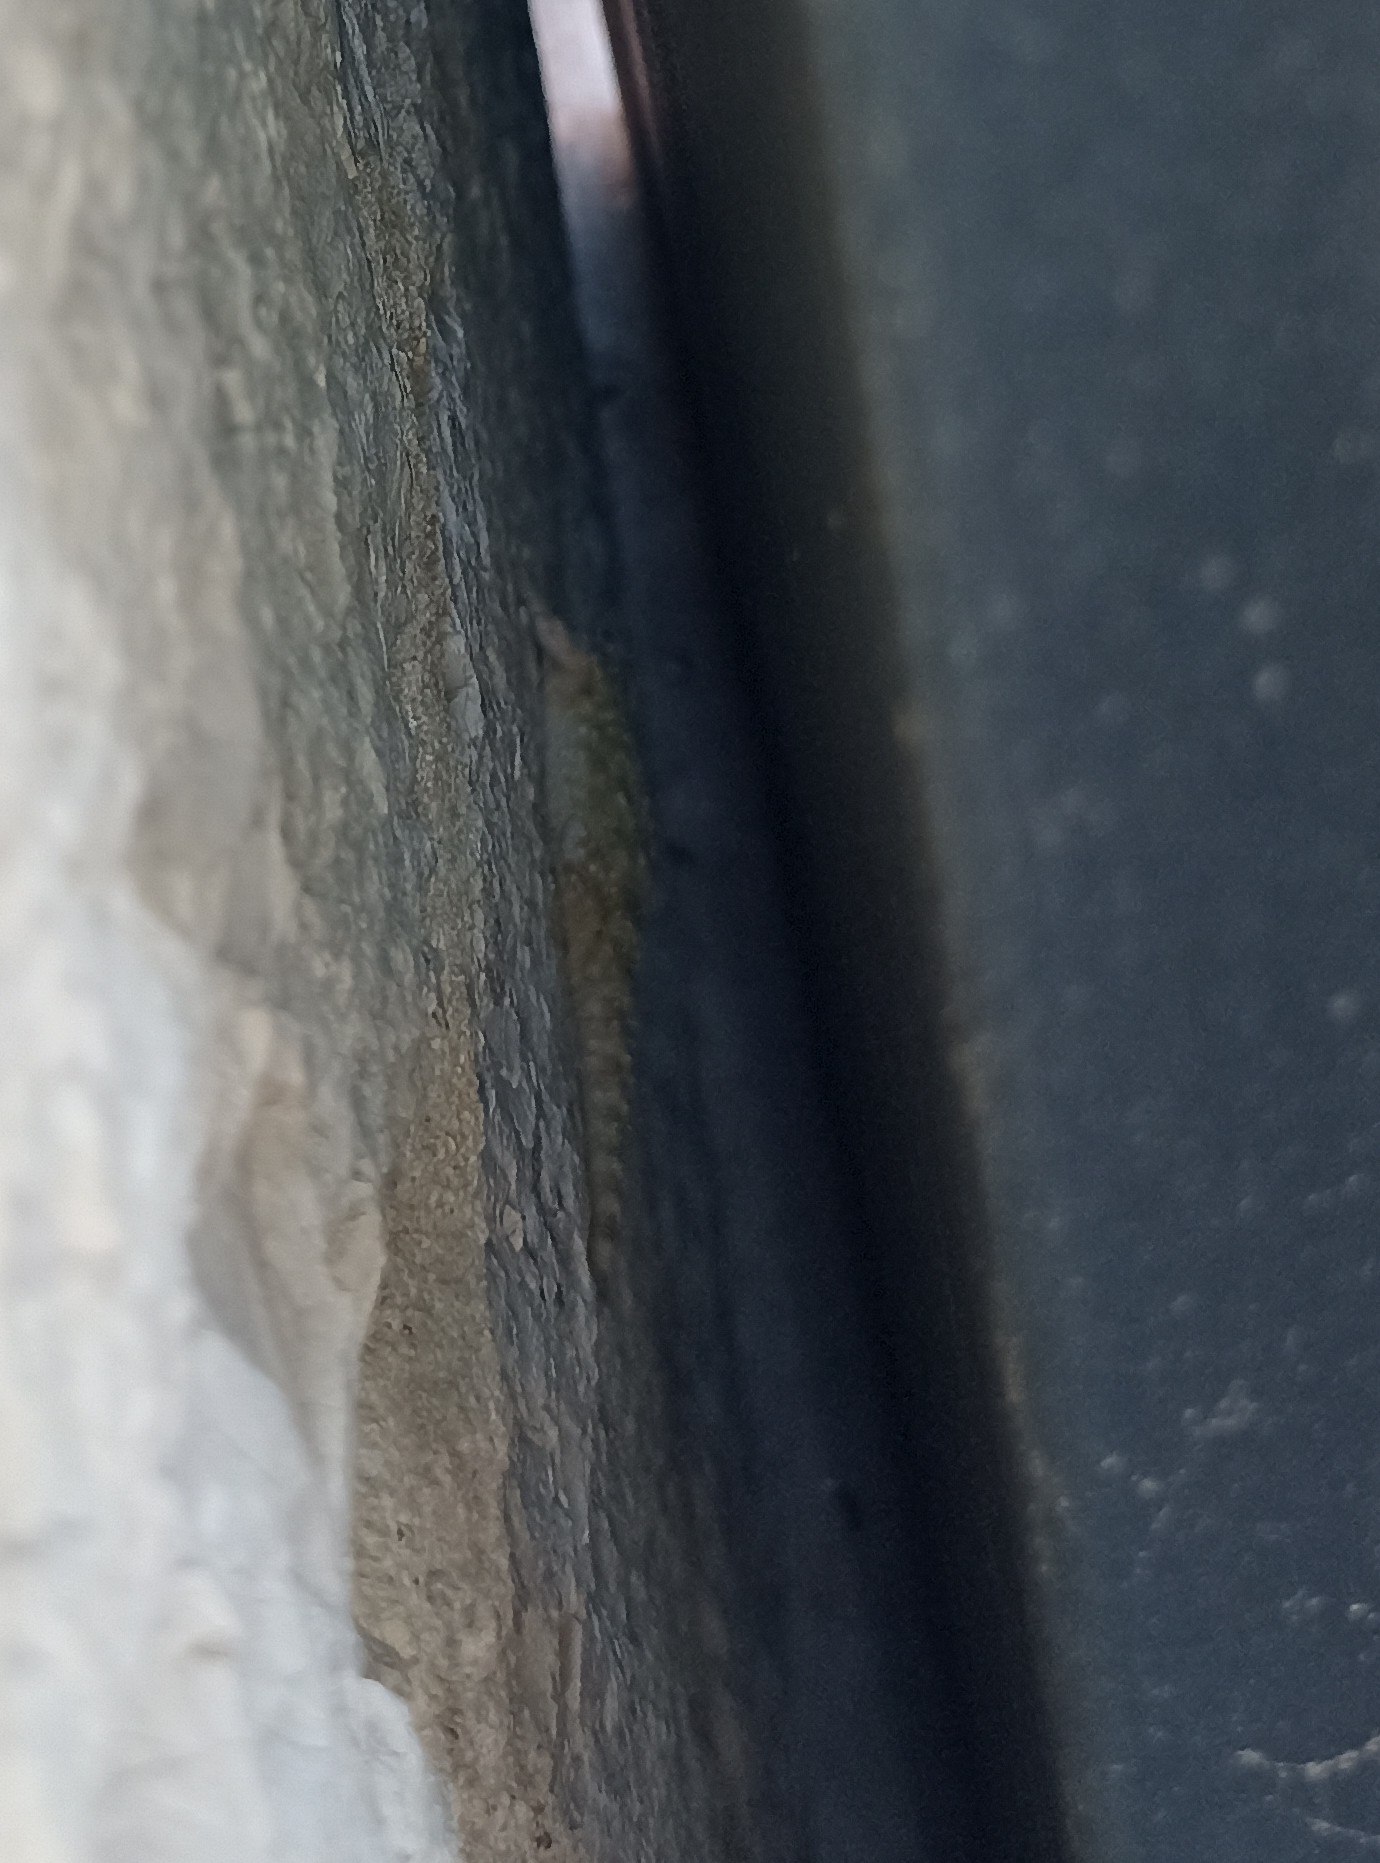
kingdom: Animalia
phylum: Chordata
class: Squamata
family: Phyllodactylidae
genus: Tarentola
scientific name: Tarentola mauritanica
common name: Moorish gecko
